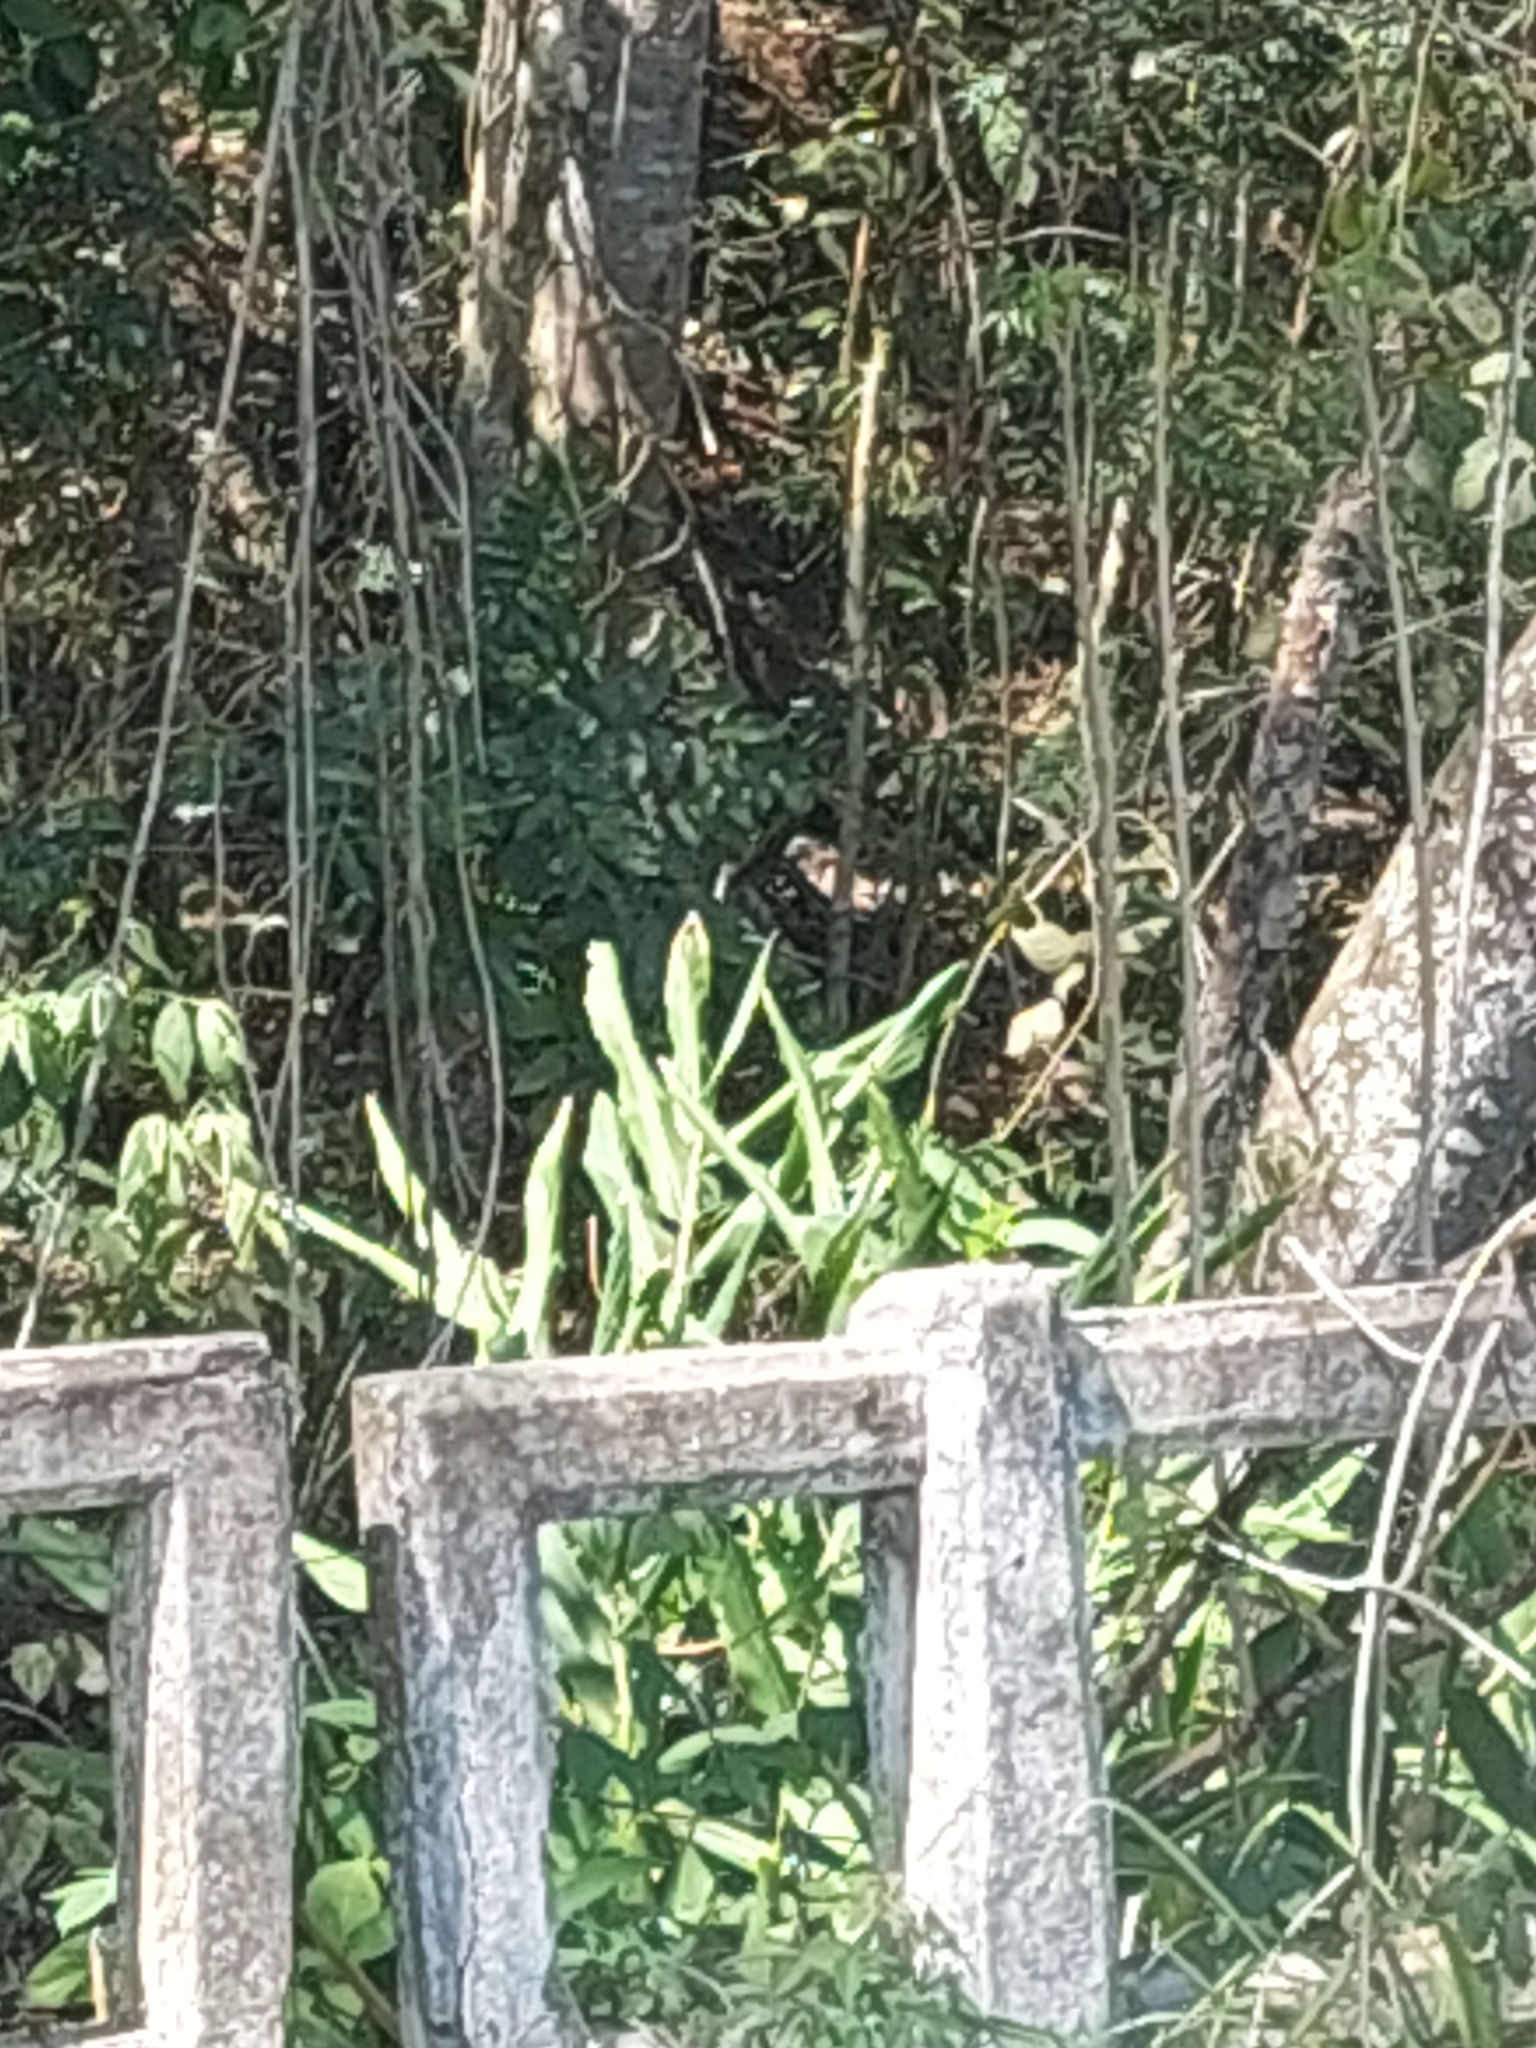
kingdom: Plantae
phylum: Tracheophyta
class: Liliopsida
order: Zingiberales
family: Zingiberaceae
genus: Hedychium
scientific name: Hedychium coronarium
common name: White garland-lily
